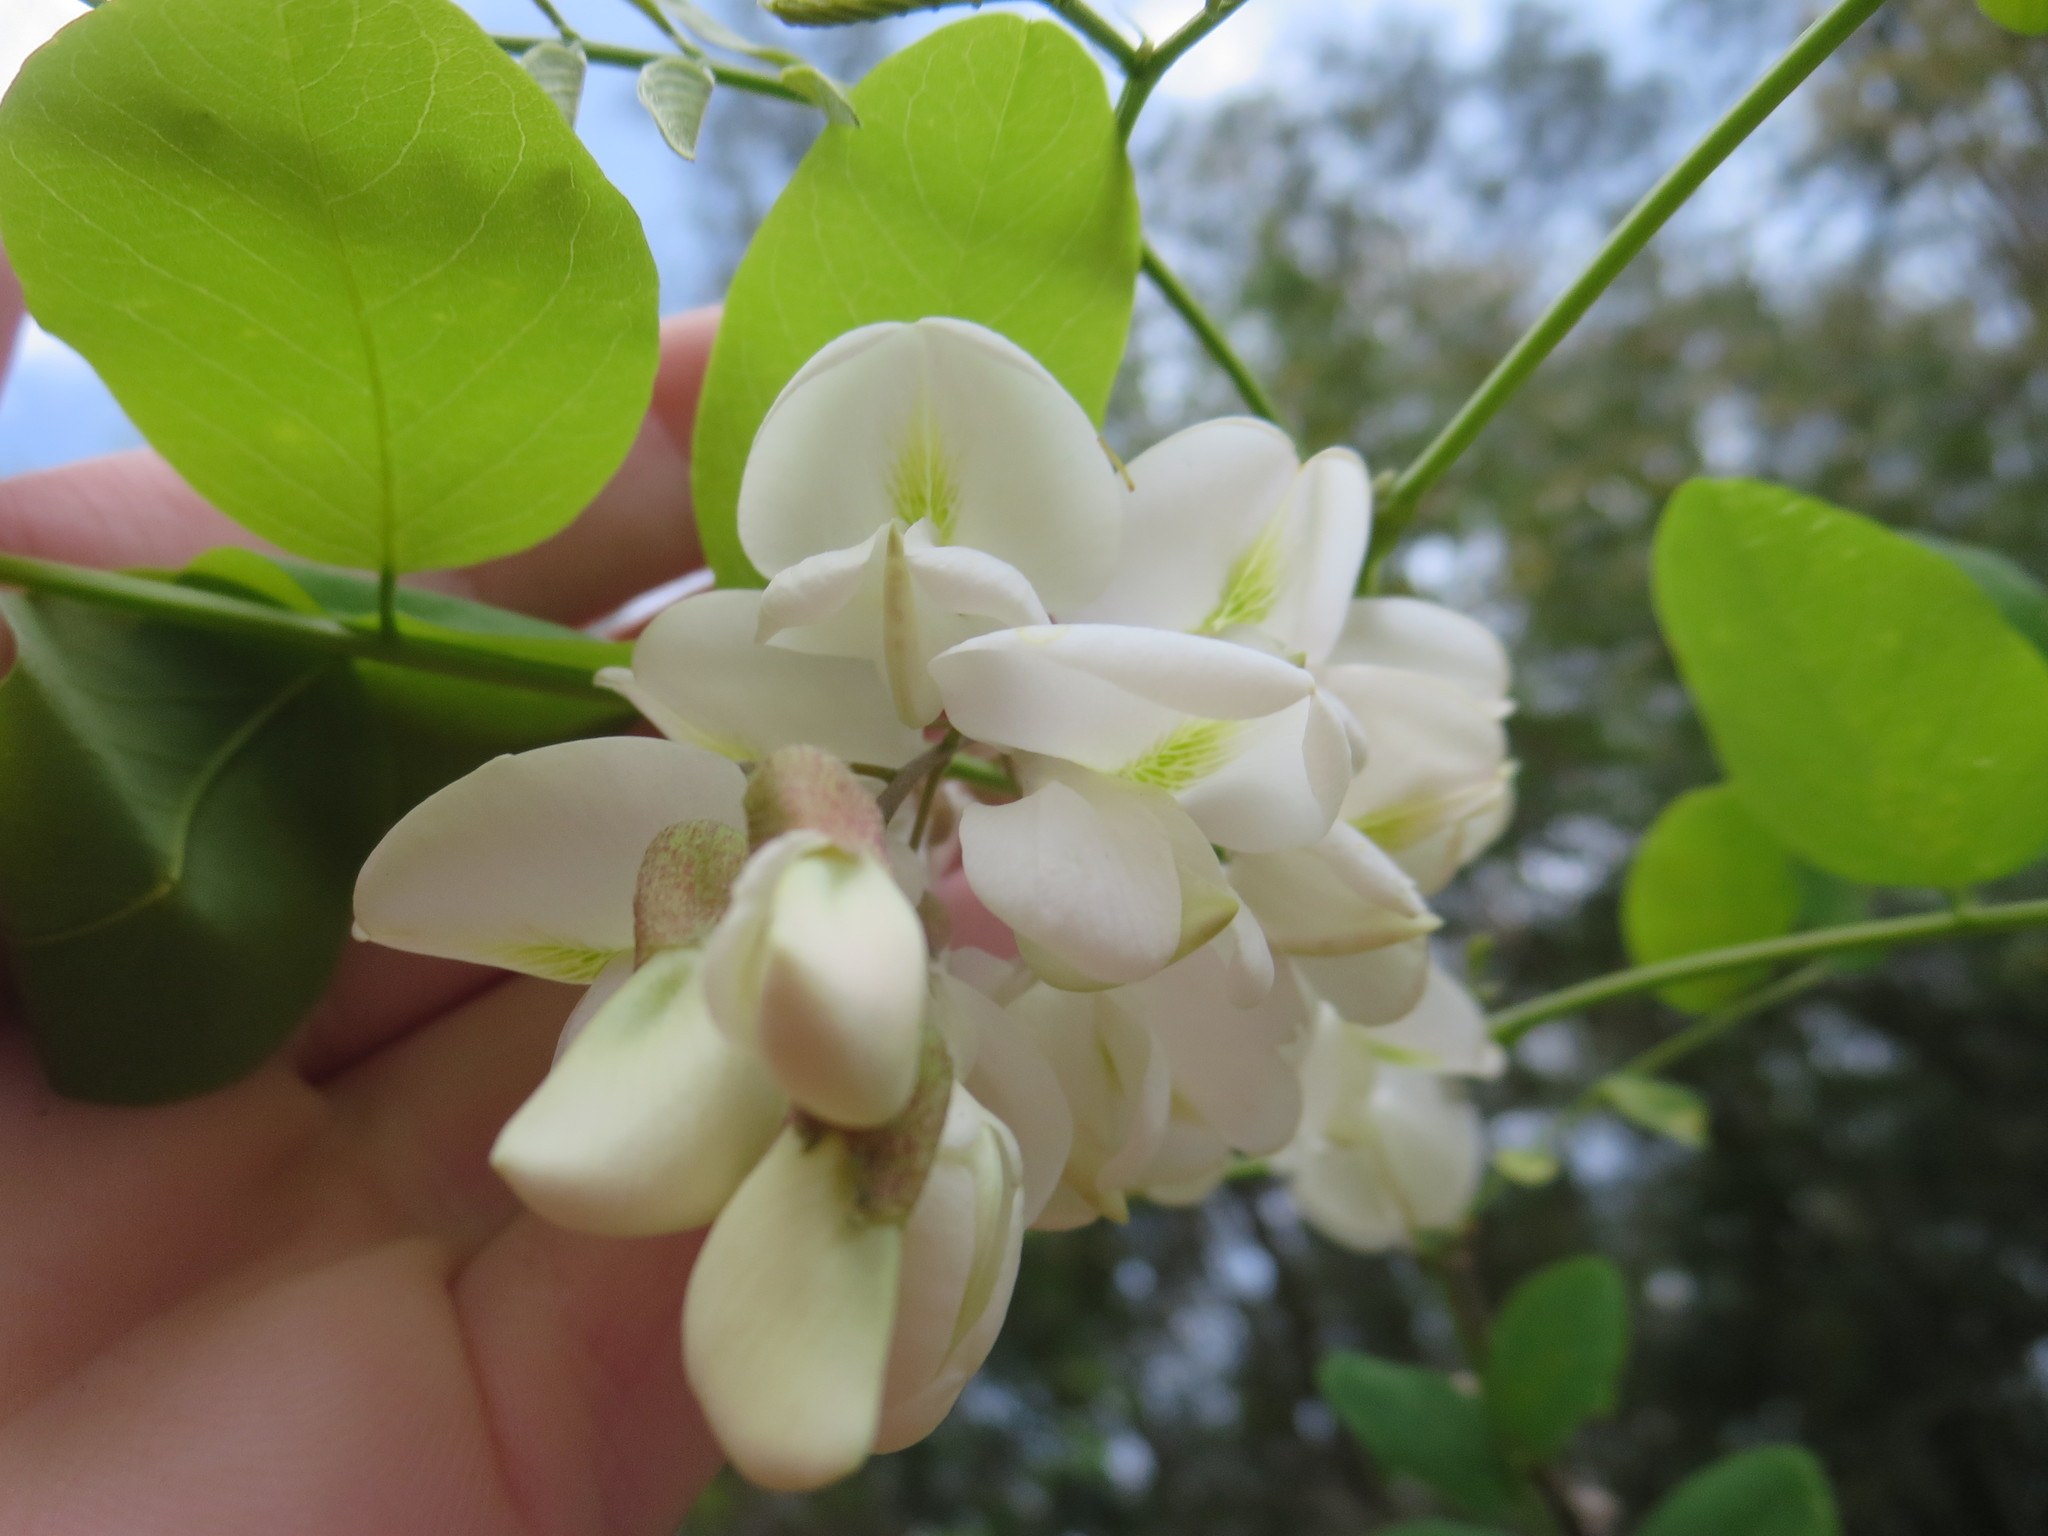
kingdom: Plantae
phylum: Tracheophyta
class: Magnoliopsida
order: Fabales
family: Fabaceae
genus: Robinia
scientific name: Robinia pseudoacacia
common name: Black locust
